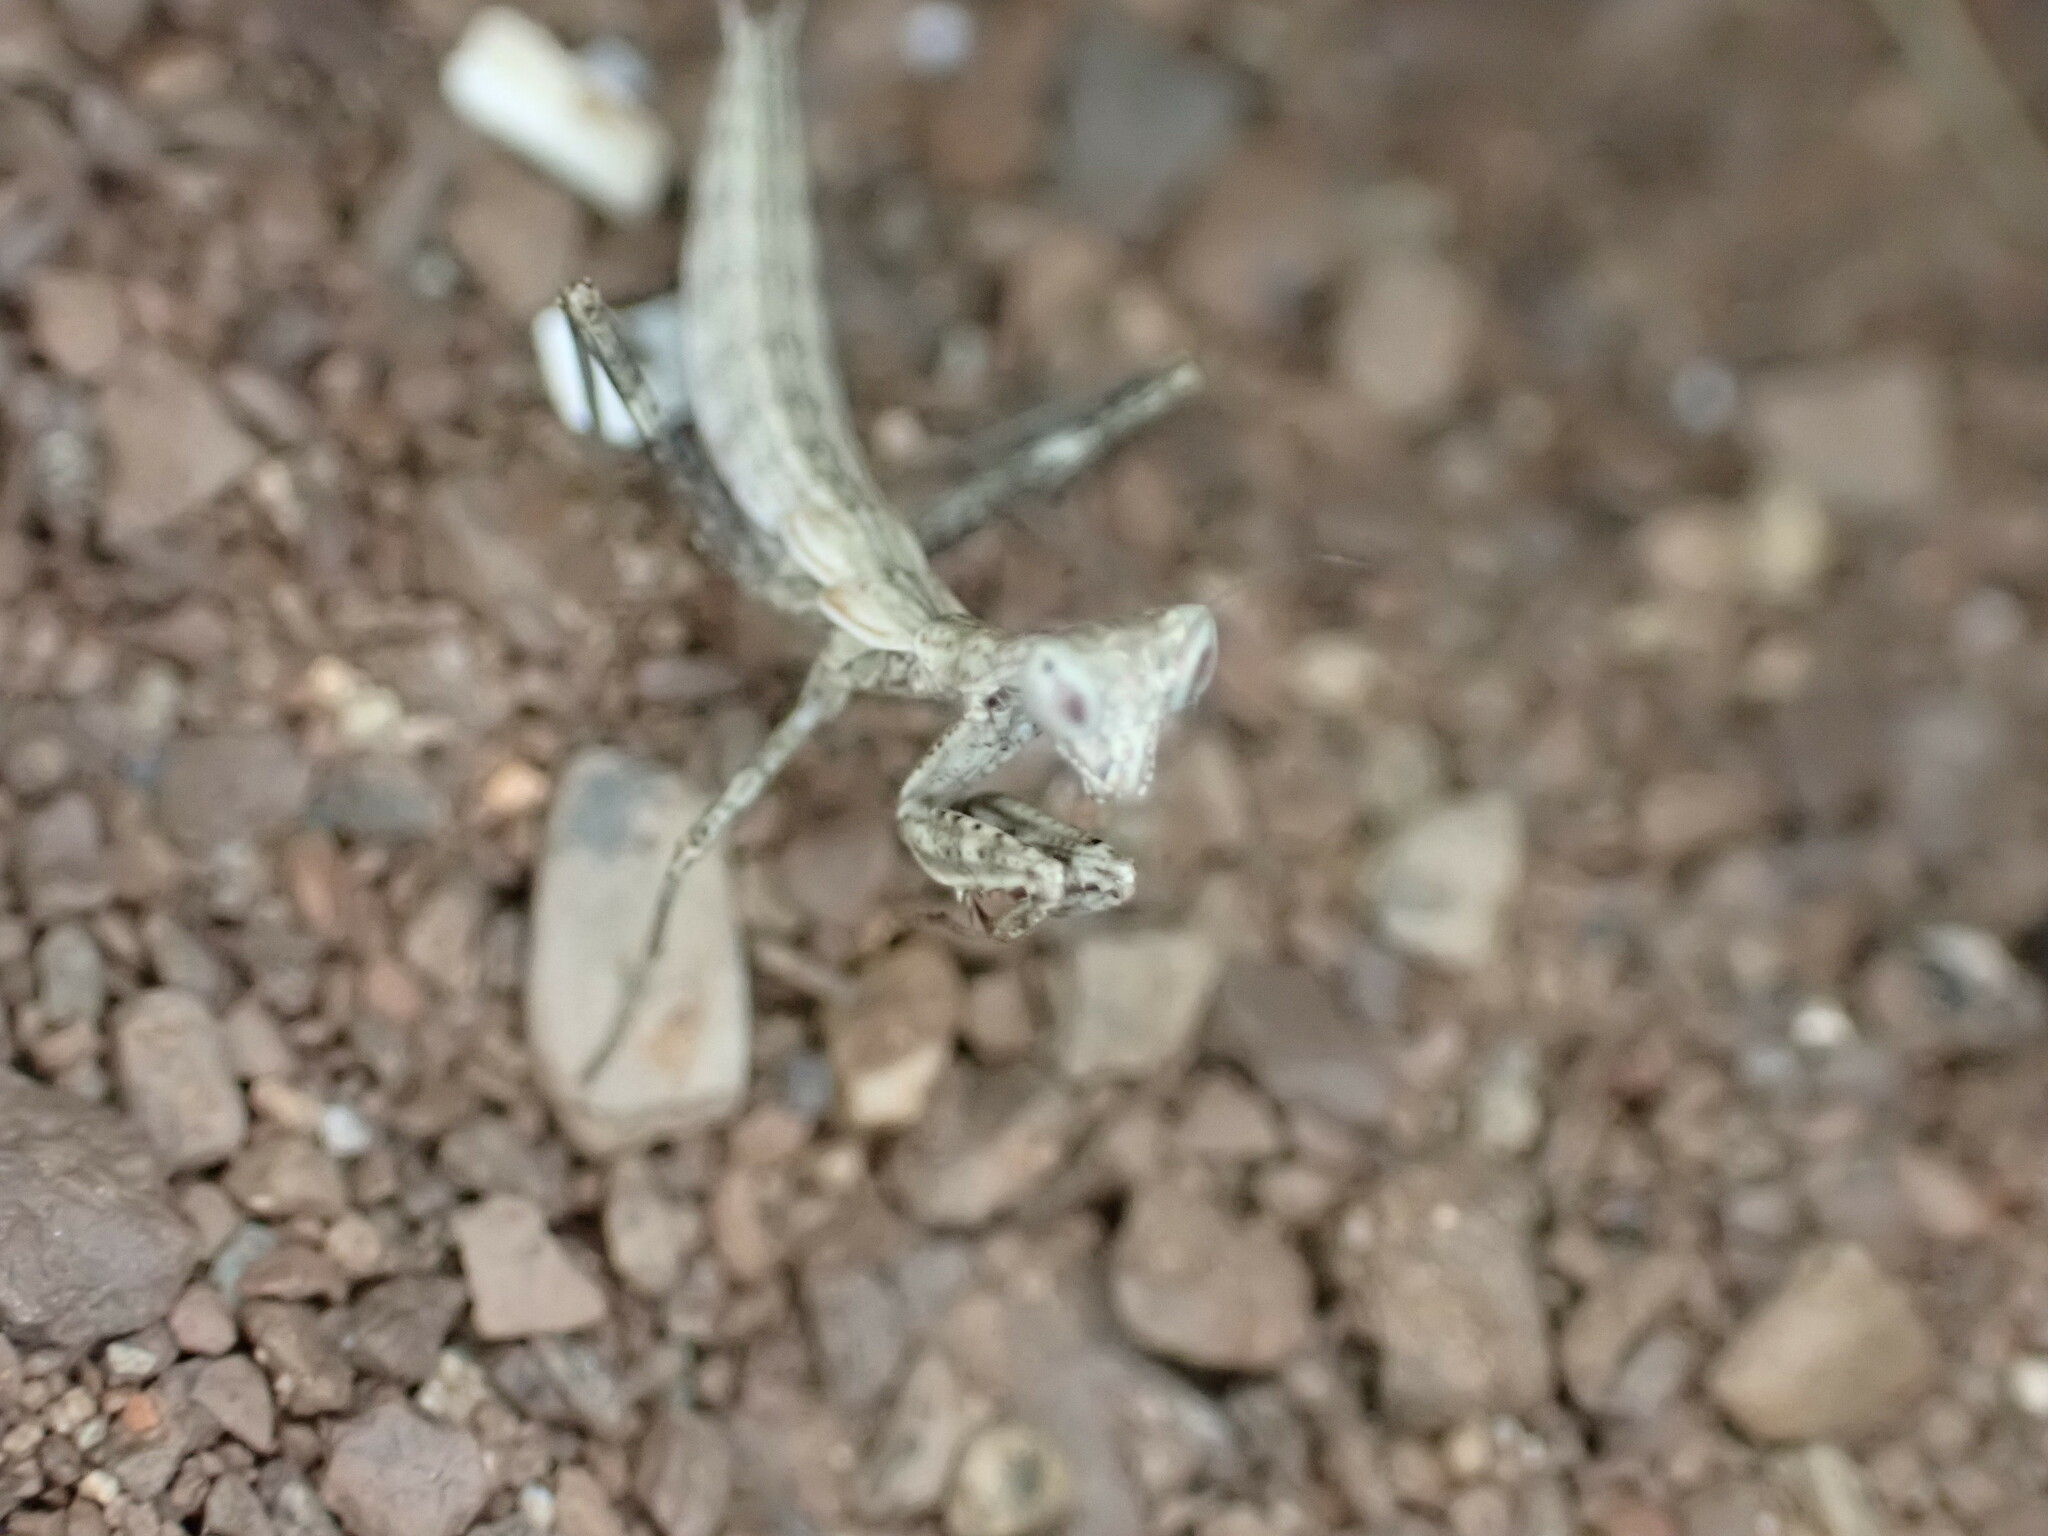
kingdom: Animalia
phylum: Arthropoda
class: Insecta
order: Mantodea
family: Amelidae
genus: Ameles
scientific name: Ameles decolor
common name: Dwarf mantis
